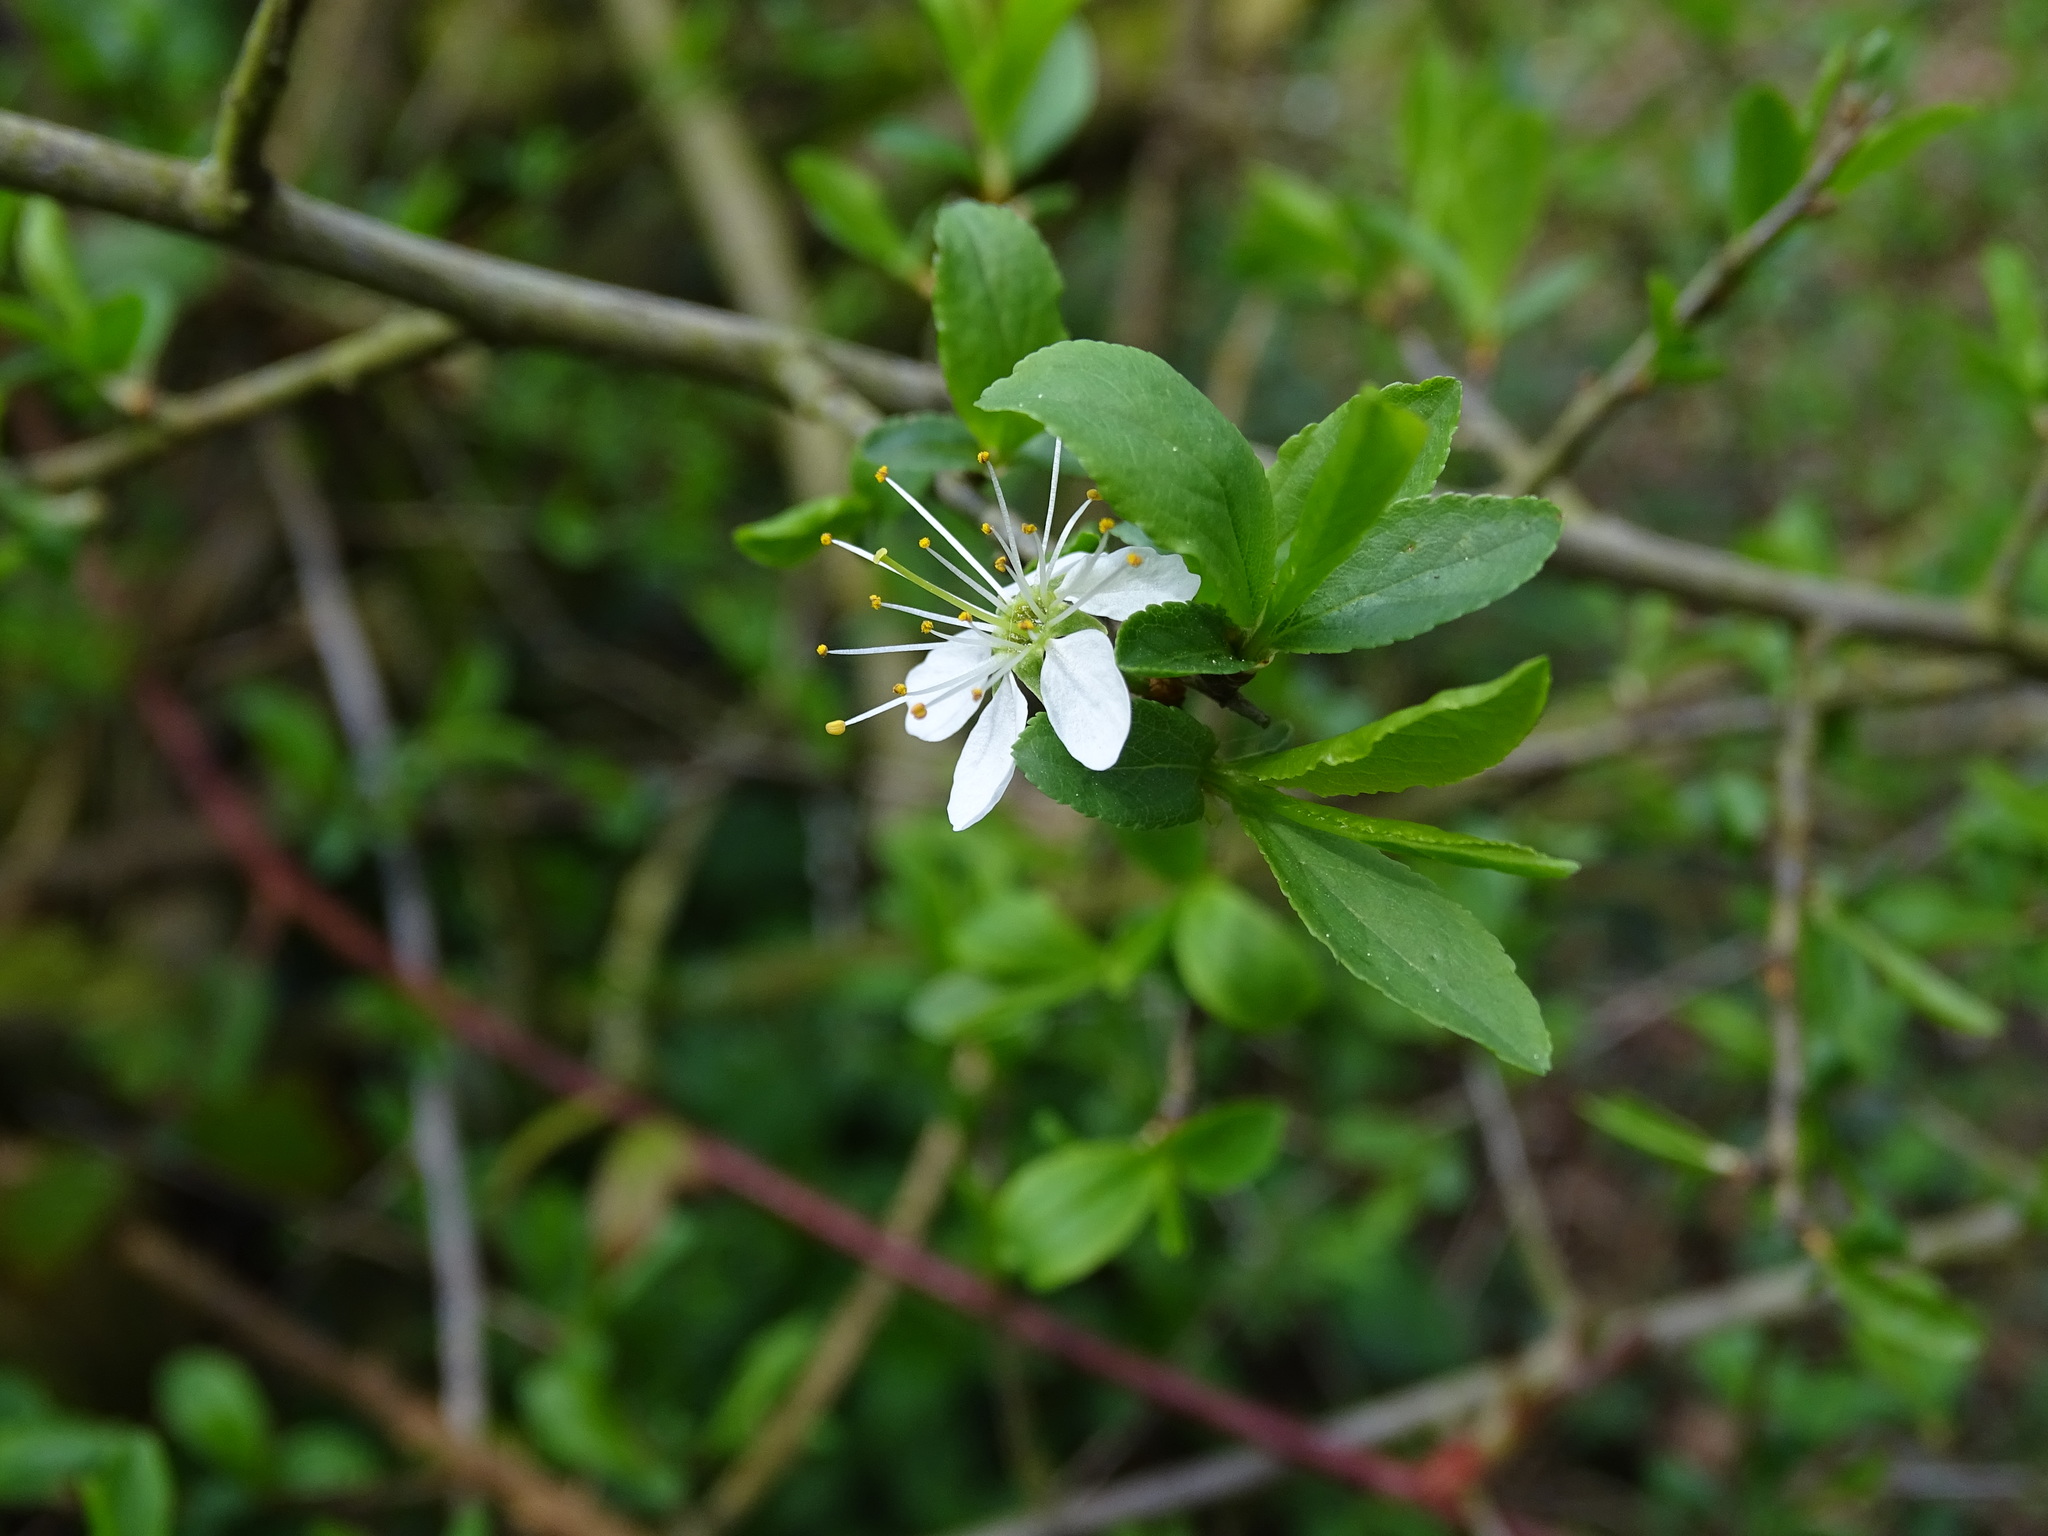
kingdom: Plantae
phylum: Tracheophyta
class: Magnoliopsida
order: Rosales
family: Rosaceae
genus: Prunus
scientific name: Prunus spinosa
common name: Blackthorn
